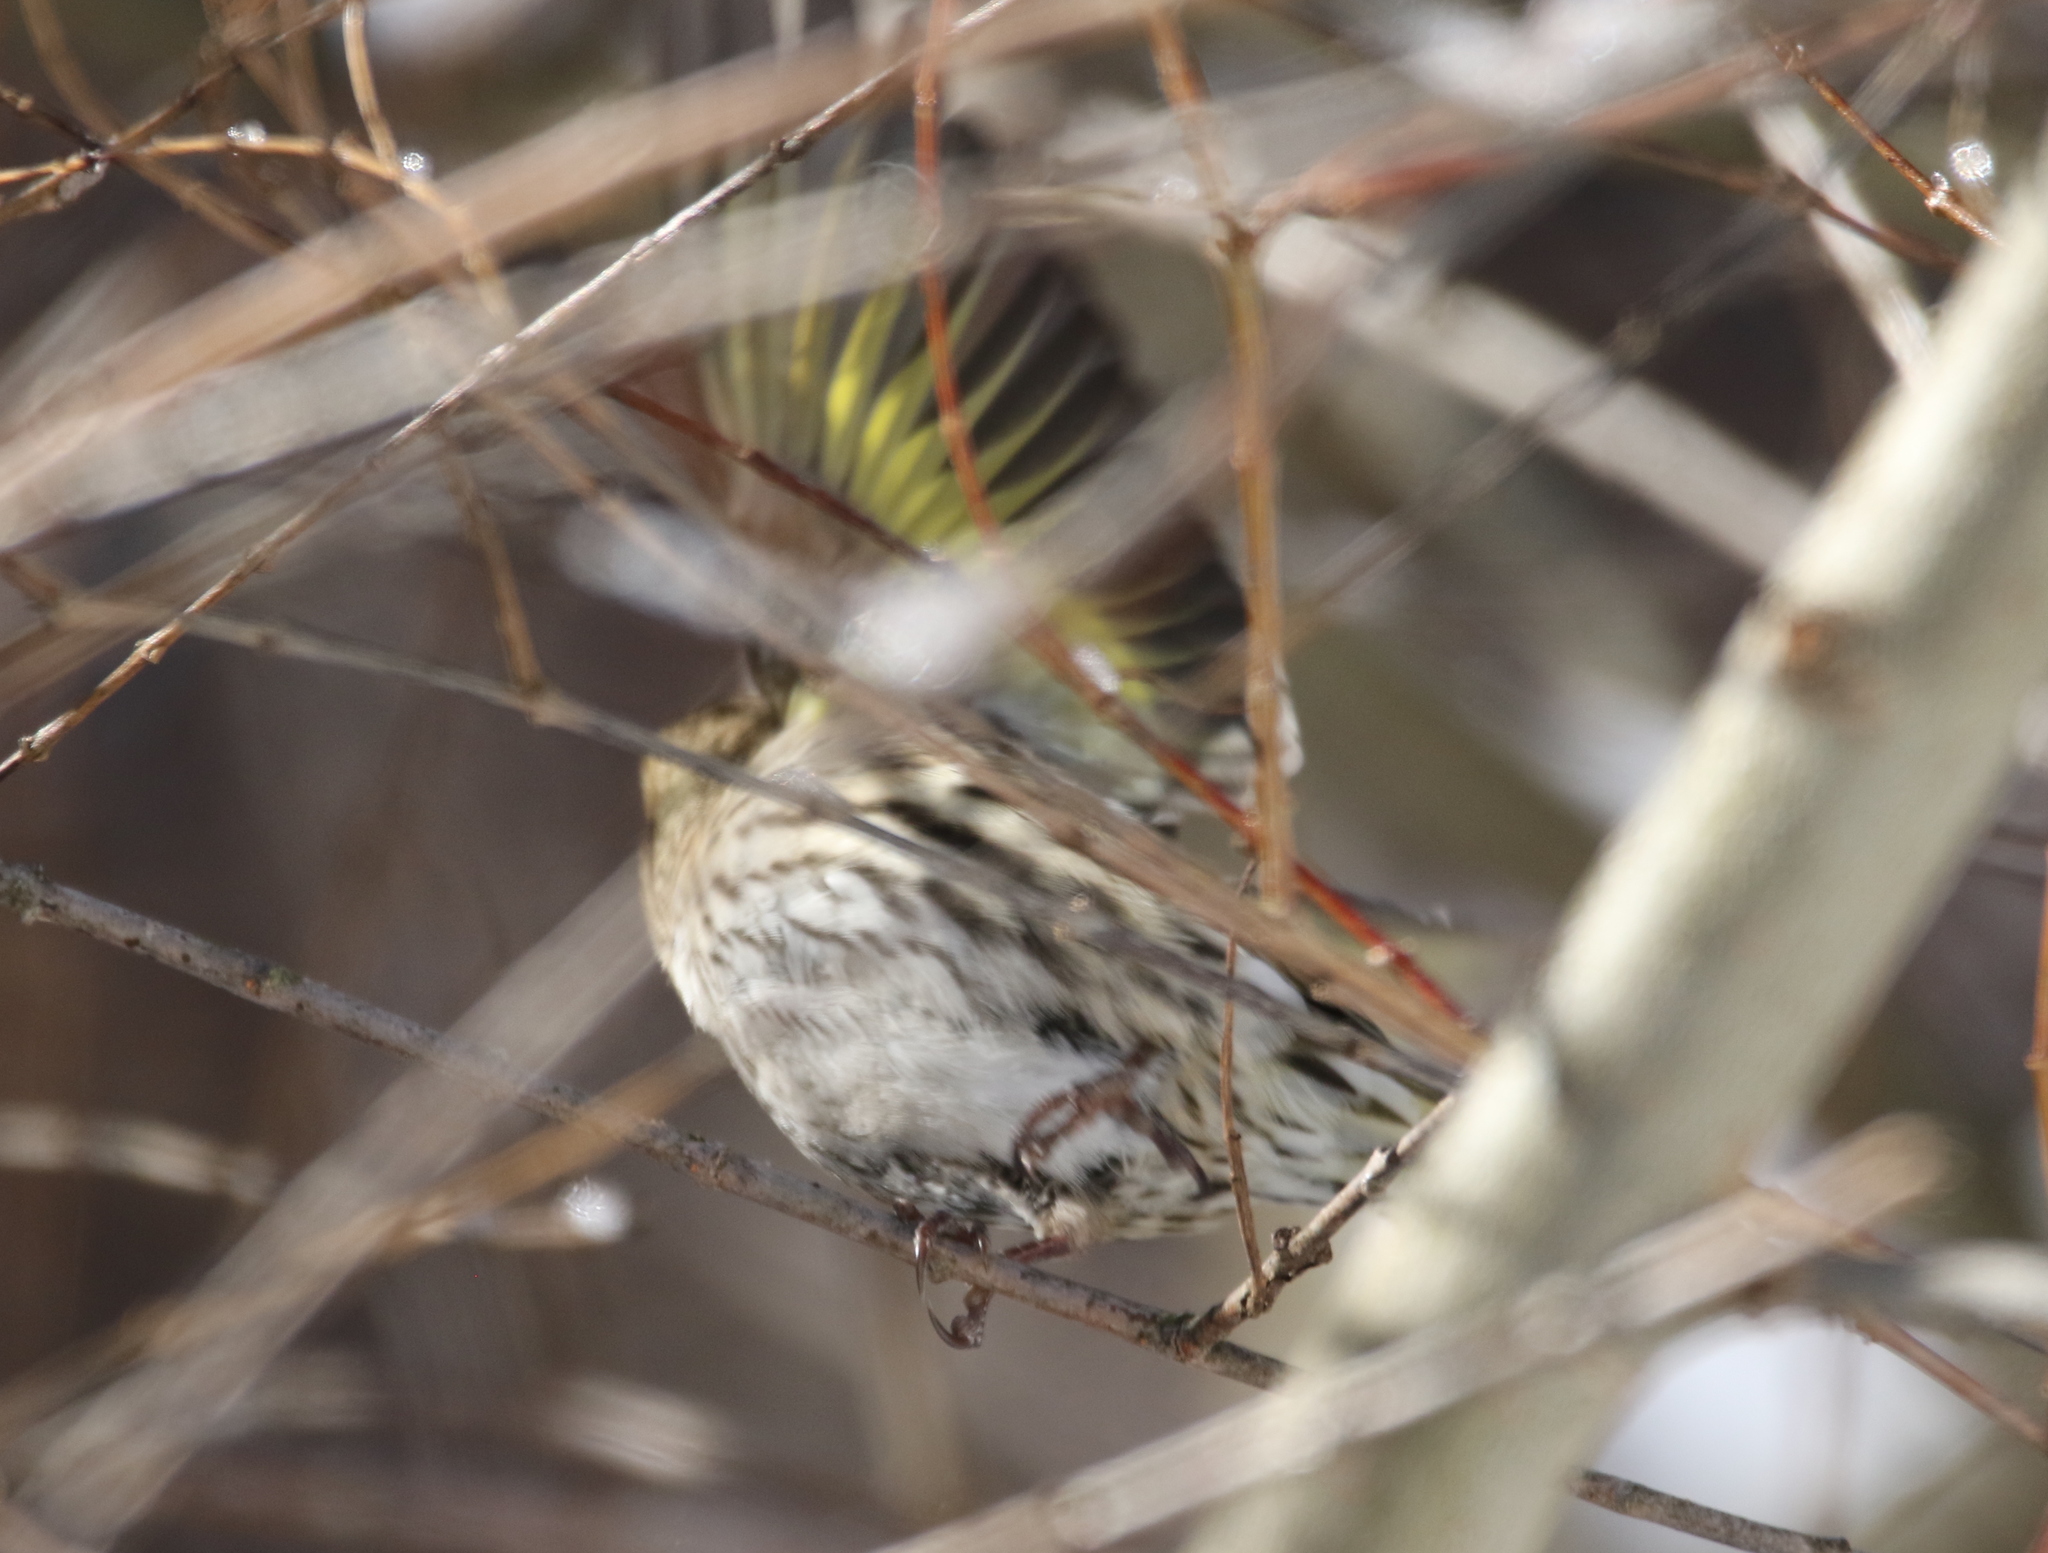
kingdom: Animalia
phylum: Chordata
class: Aves
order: Passeriformes
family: Fringillidae
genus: Spinus
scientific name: Spinus pinus
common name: Pine siskin
